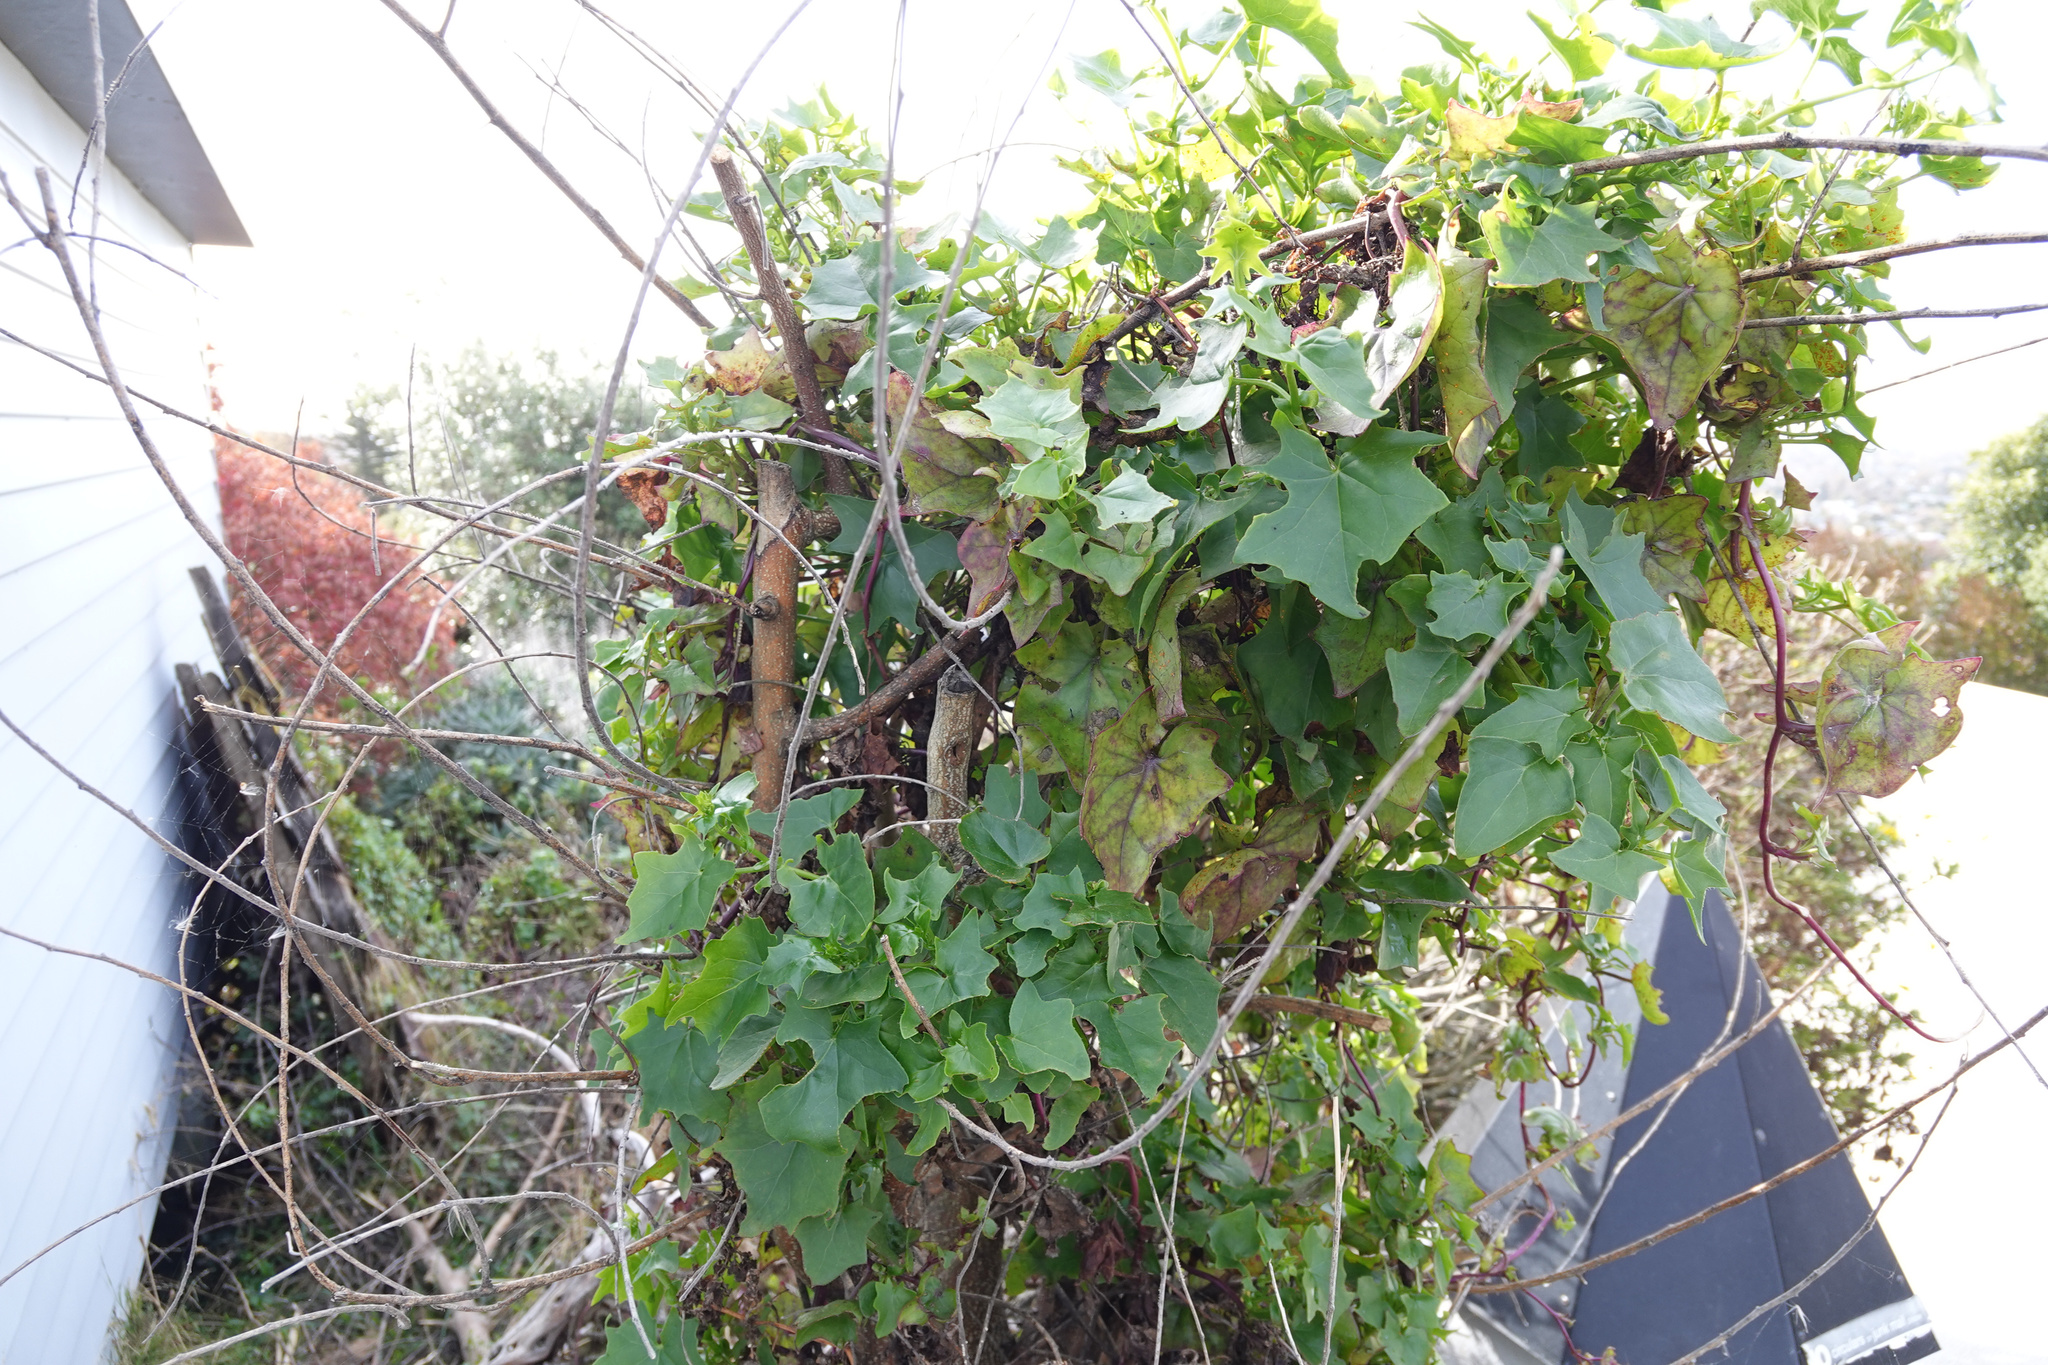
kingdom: Plantae
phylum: Tracheophyta
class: Magnoliopsida
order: Asterales
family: Asteraceae
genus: Delairea
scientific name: Delairea odorata
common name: Cape-ivy
